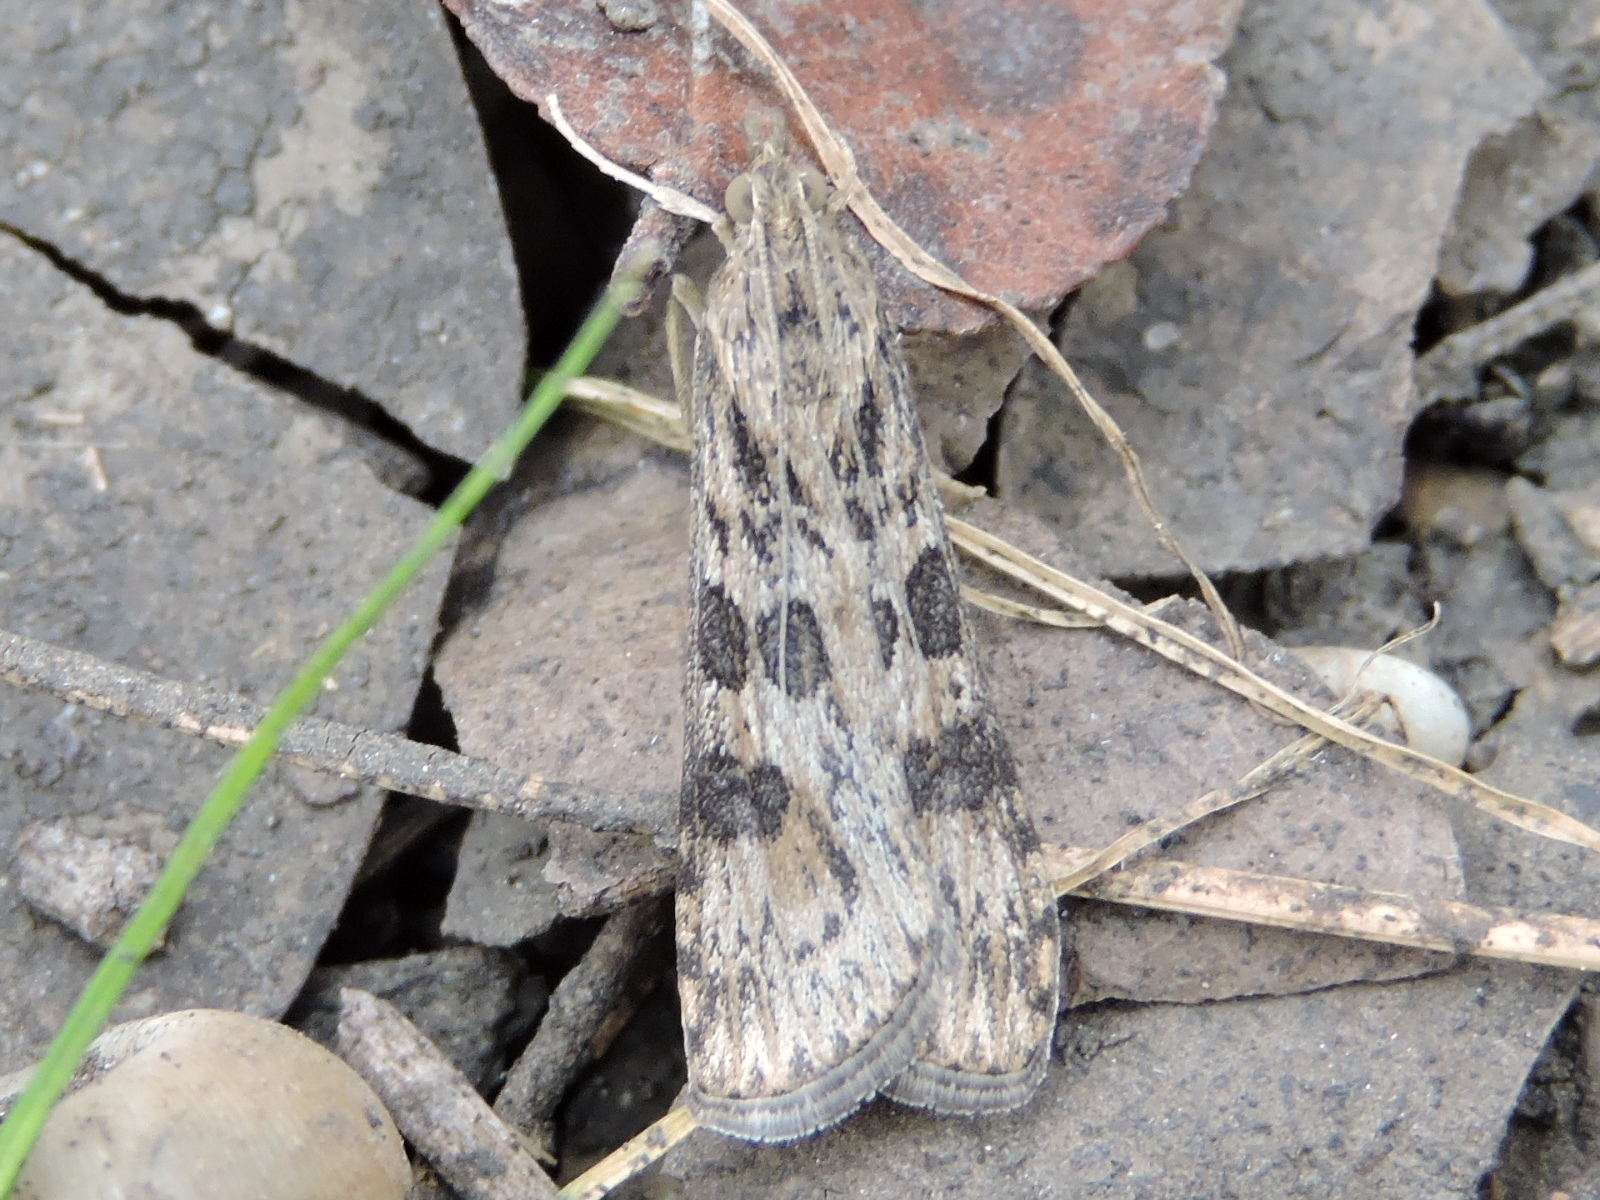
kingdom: Animalia
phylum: Arthropoda
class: Insecta
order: Lepidoptera
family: Crambidae
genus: Nomophila
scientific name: Nomophila nearctica
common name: American rush veneer
